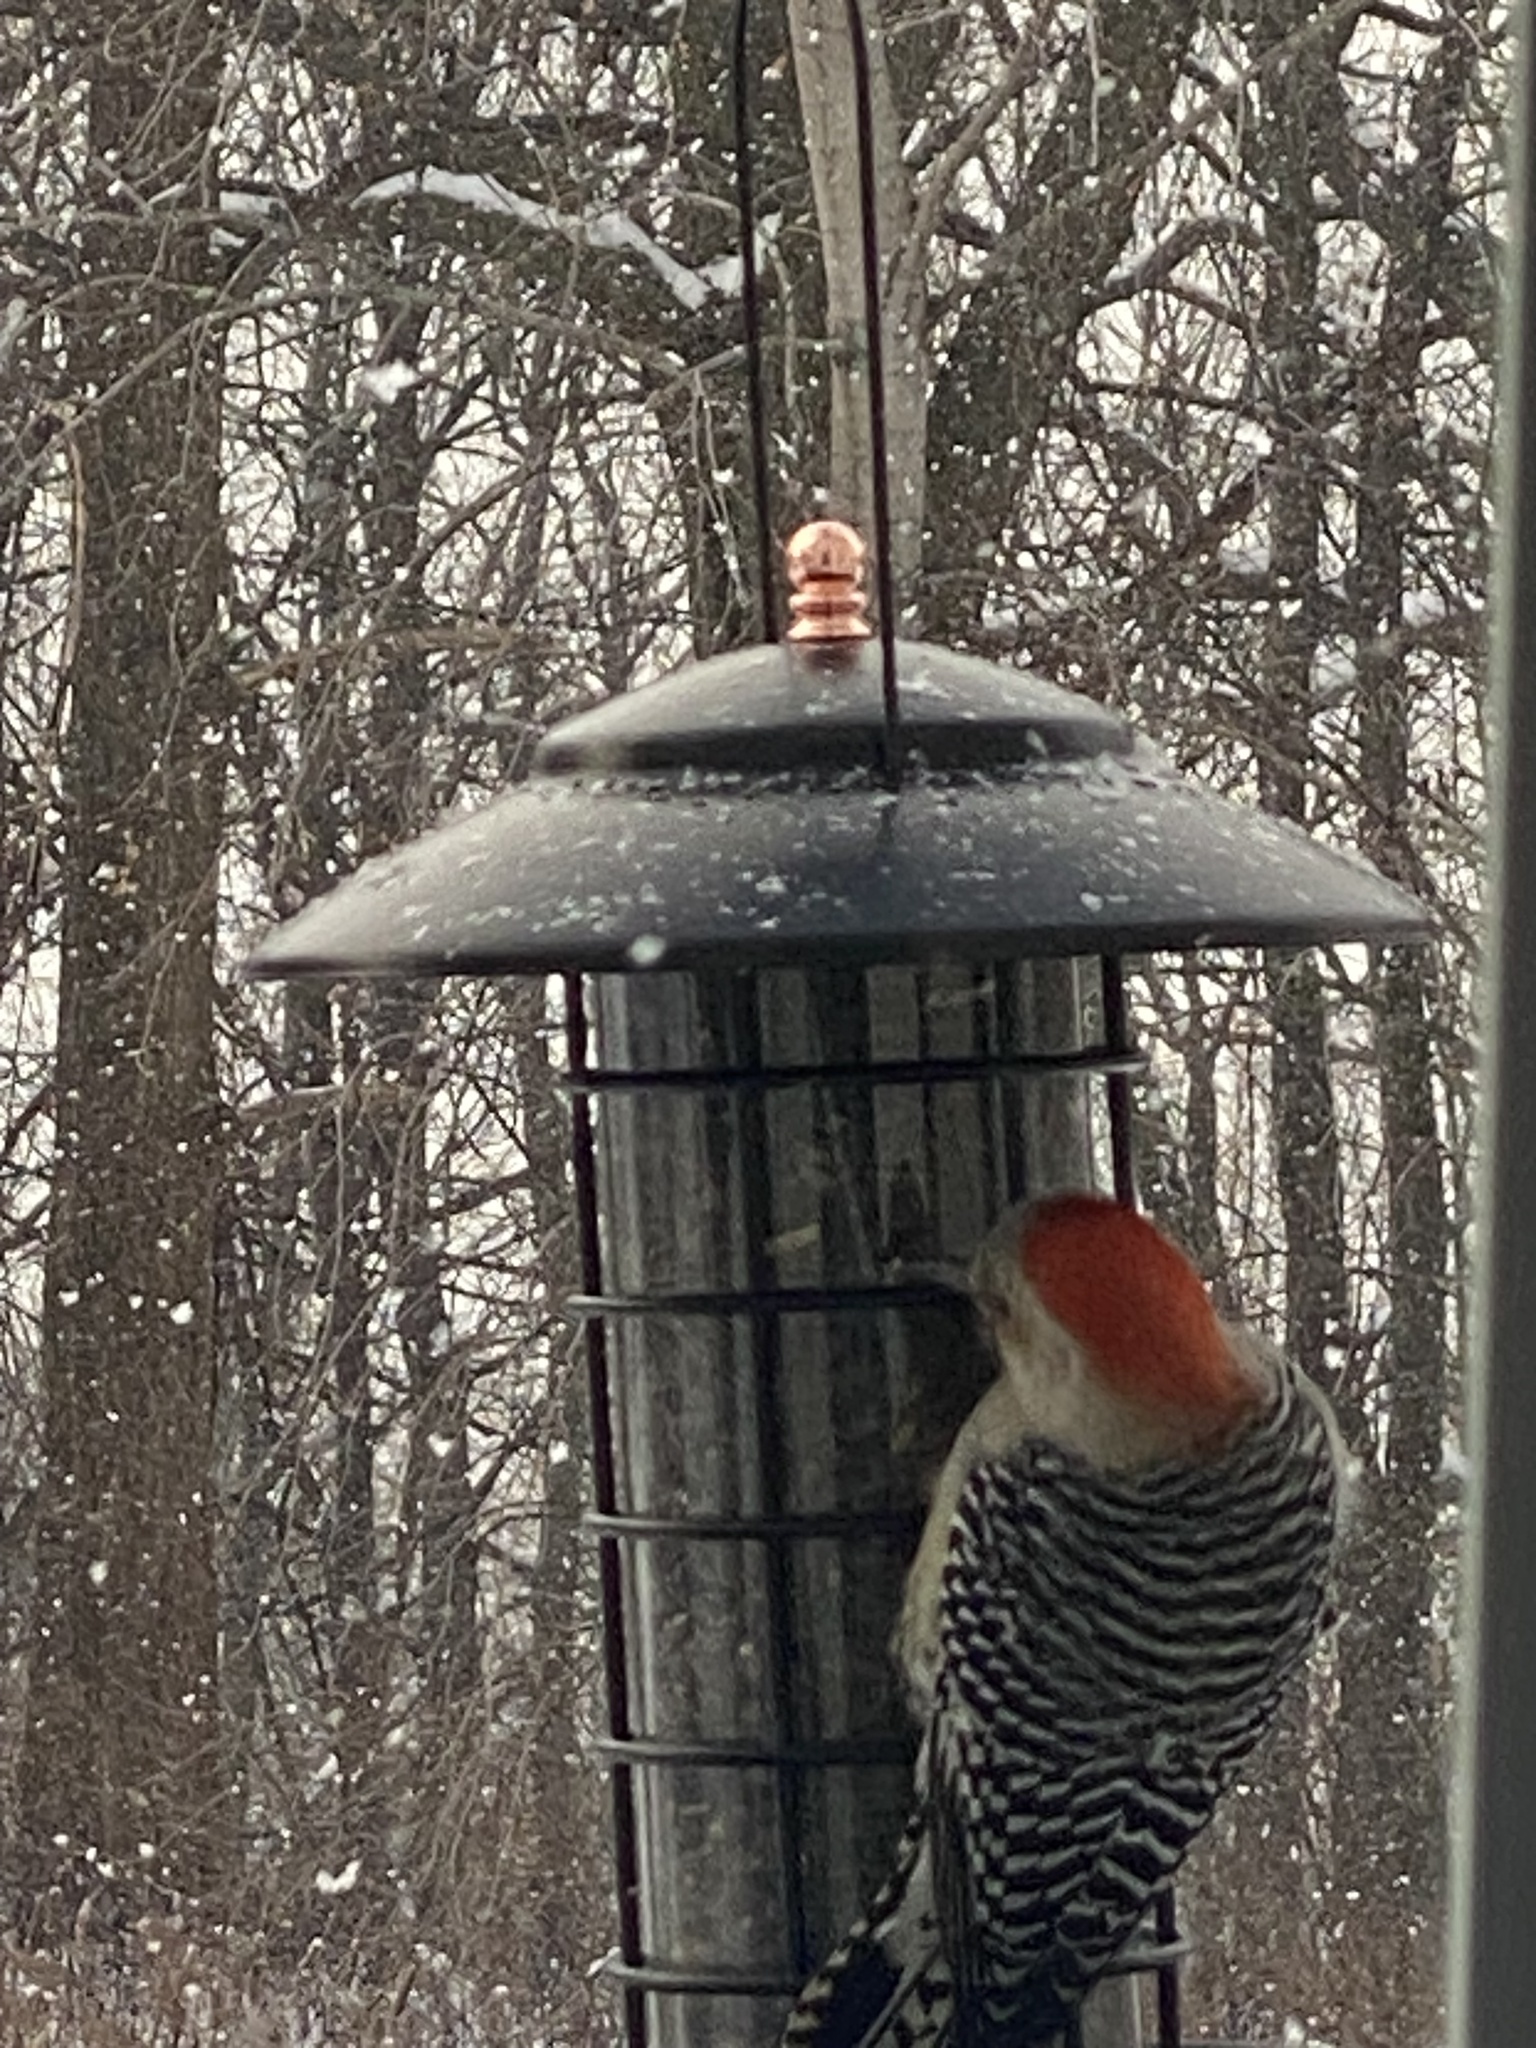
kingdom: Animalia
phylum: Chordata
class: Aves
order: Piciformes
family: Picidae
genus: Melanerpes
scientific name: Melanerpes carolinus
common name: Red-bellied woodpecker
